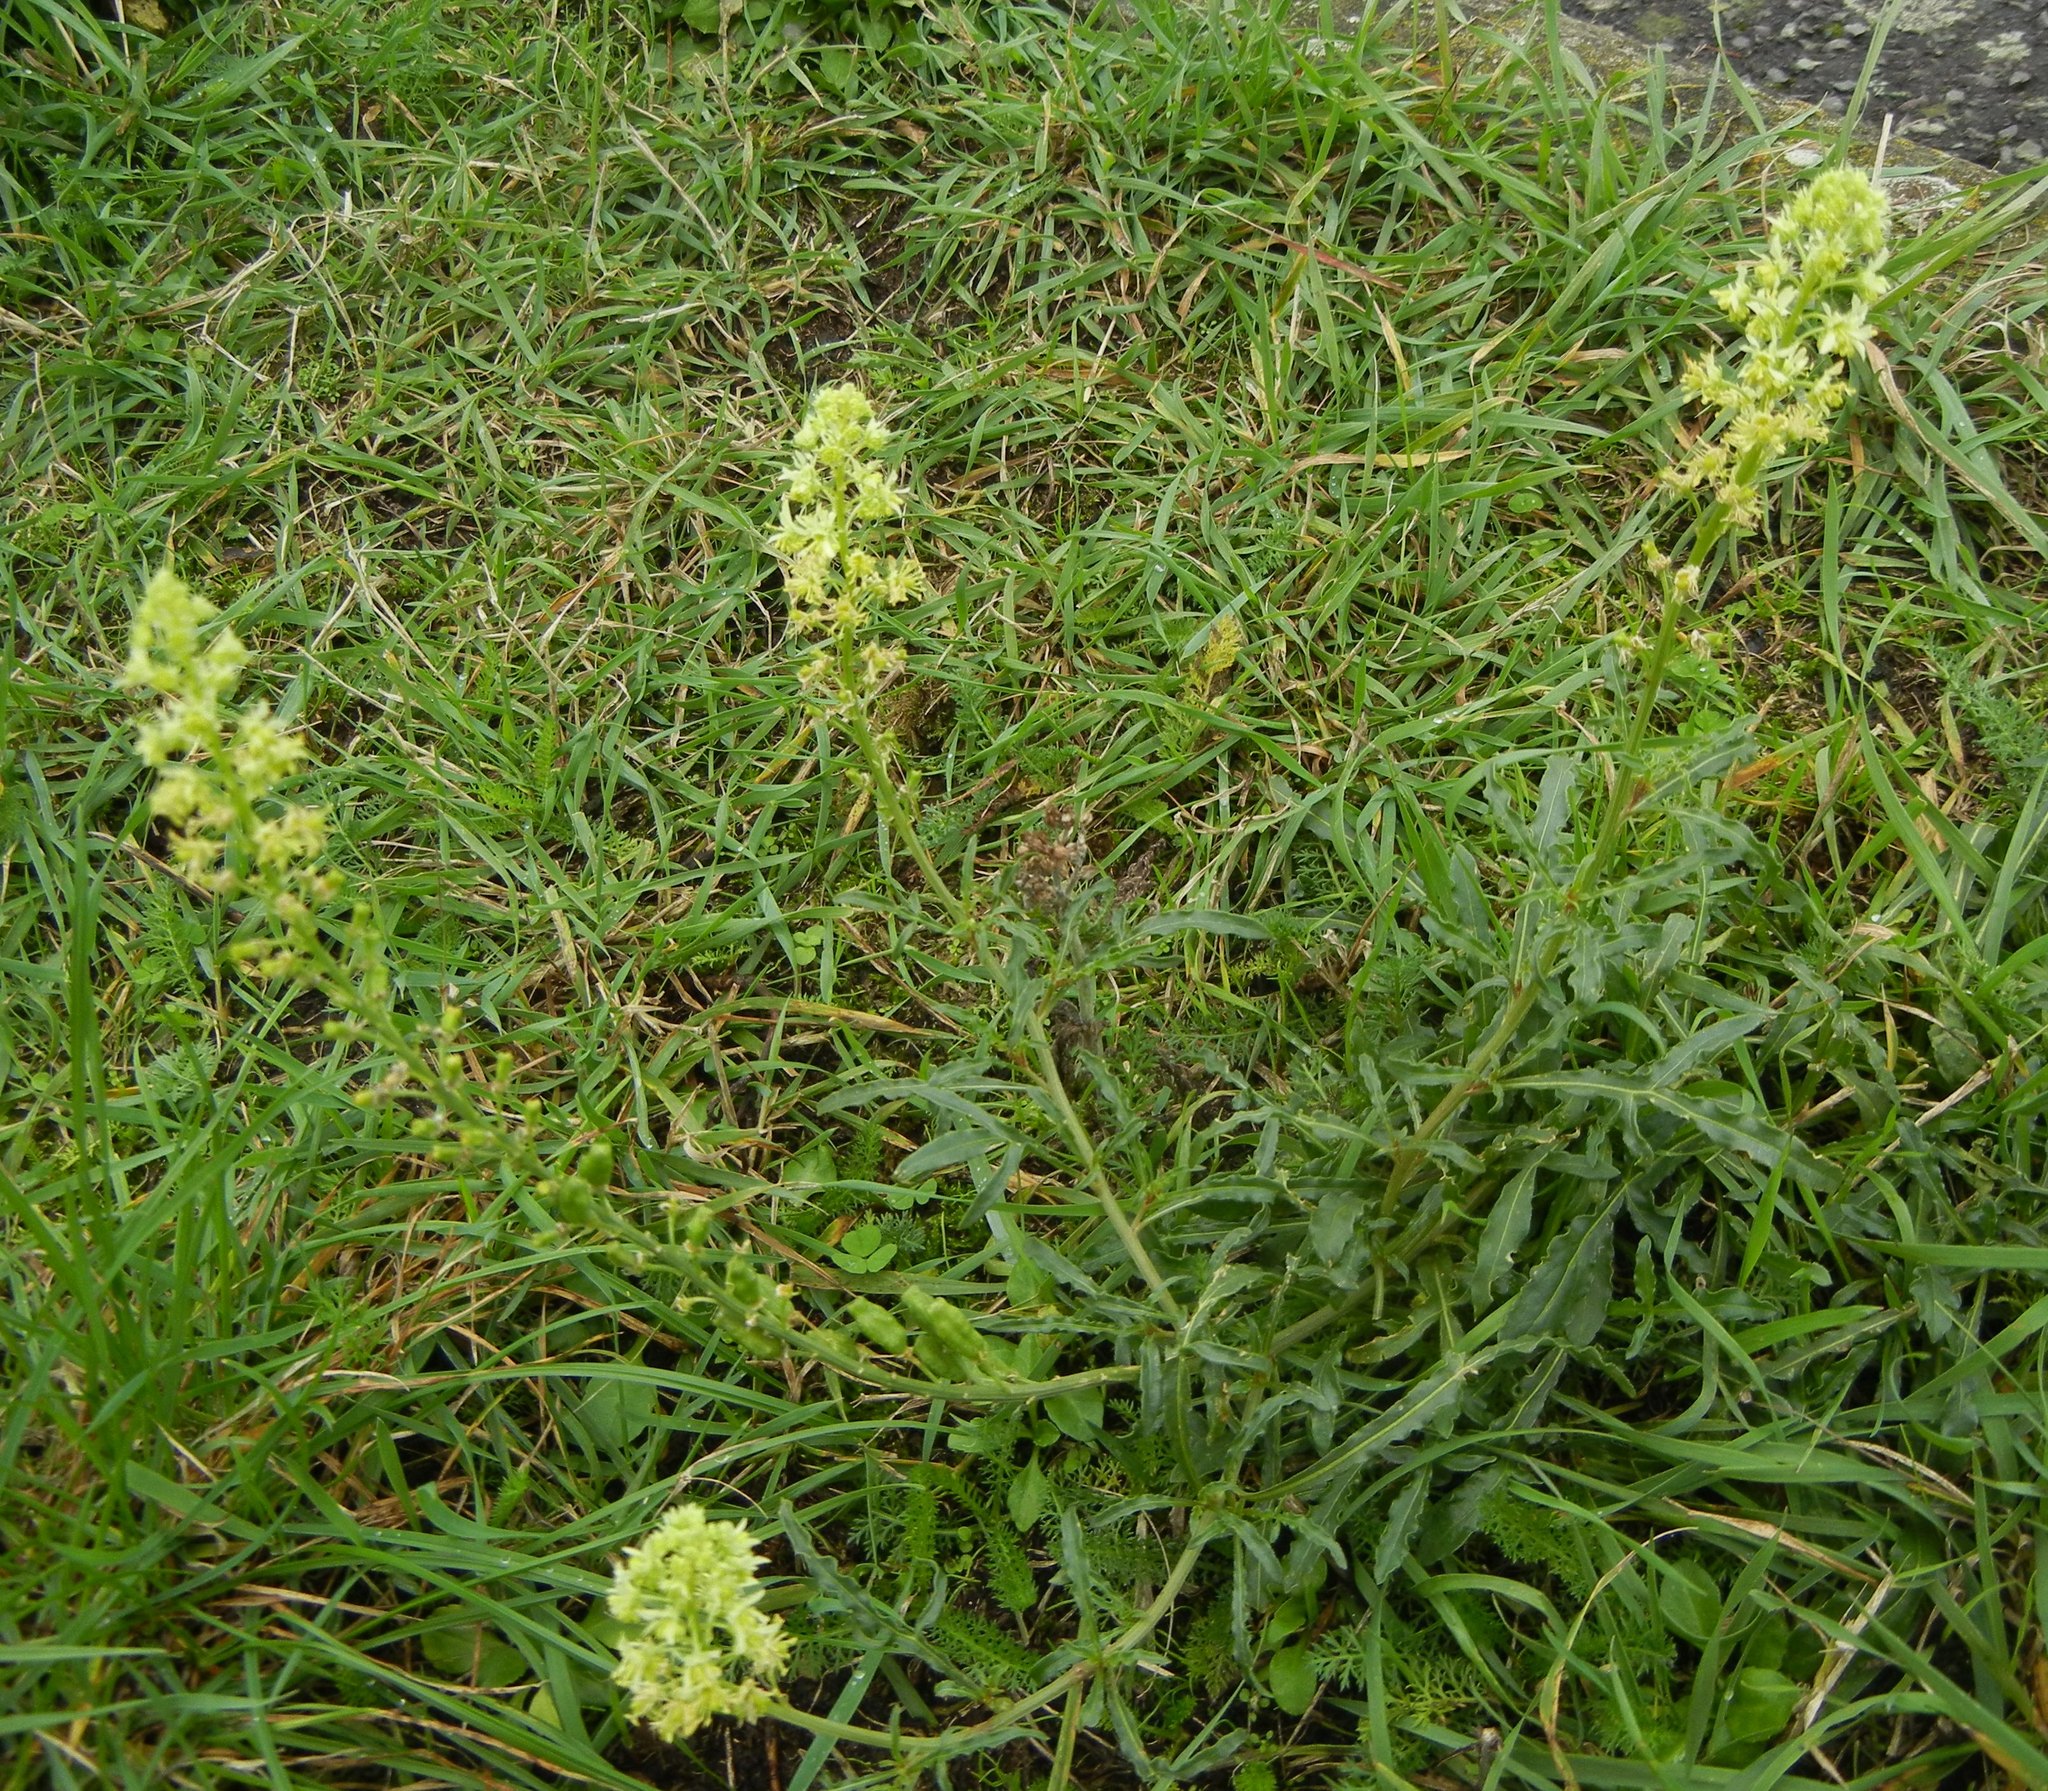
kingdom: Plantae
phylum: Tracheophyta
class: Magnoliopsida
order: Brassicales
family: Resedaceae
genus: Reseda
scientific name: Reseda lutea
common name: Wild mignonette
